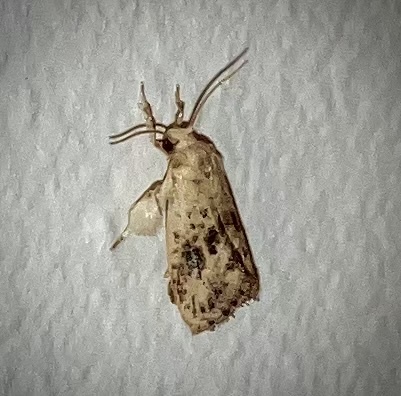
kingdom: Animalia
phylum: Arthropoda
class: Insecta
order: Lepidoptera
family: Tineidae
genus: Acrolophus
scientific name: Acrolophus mycetophagus
